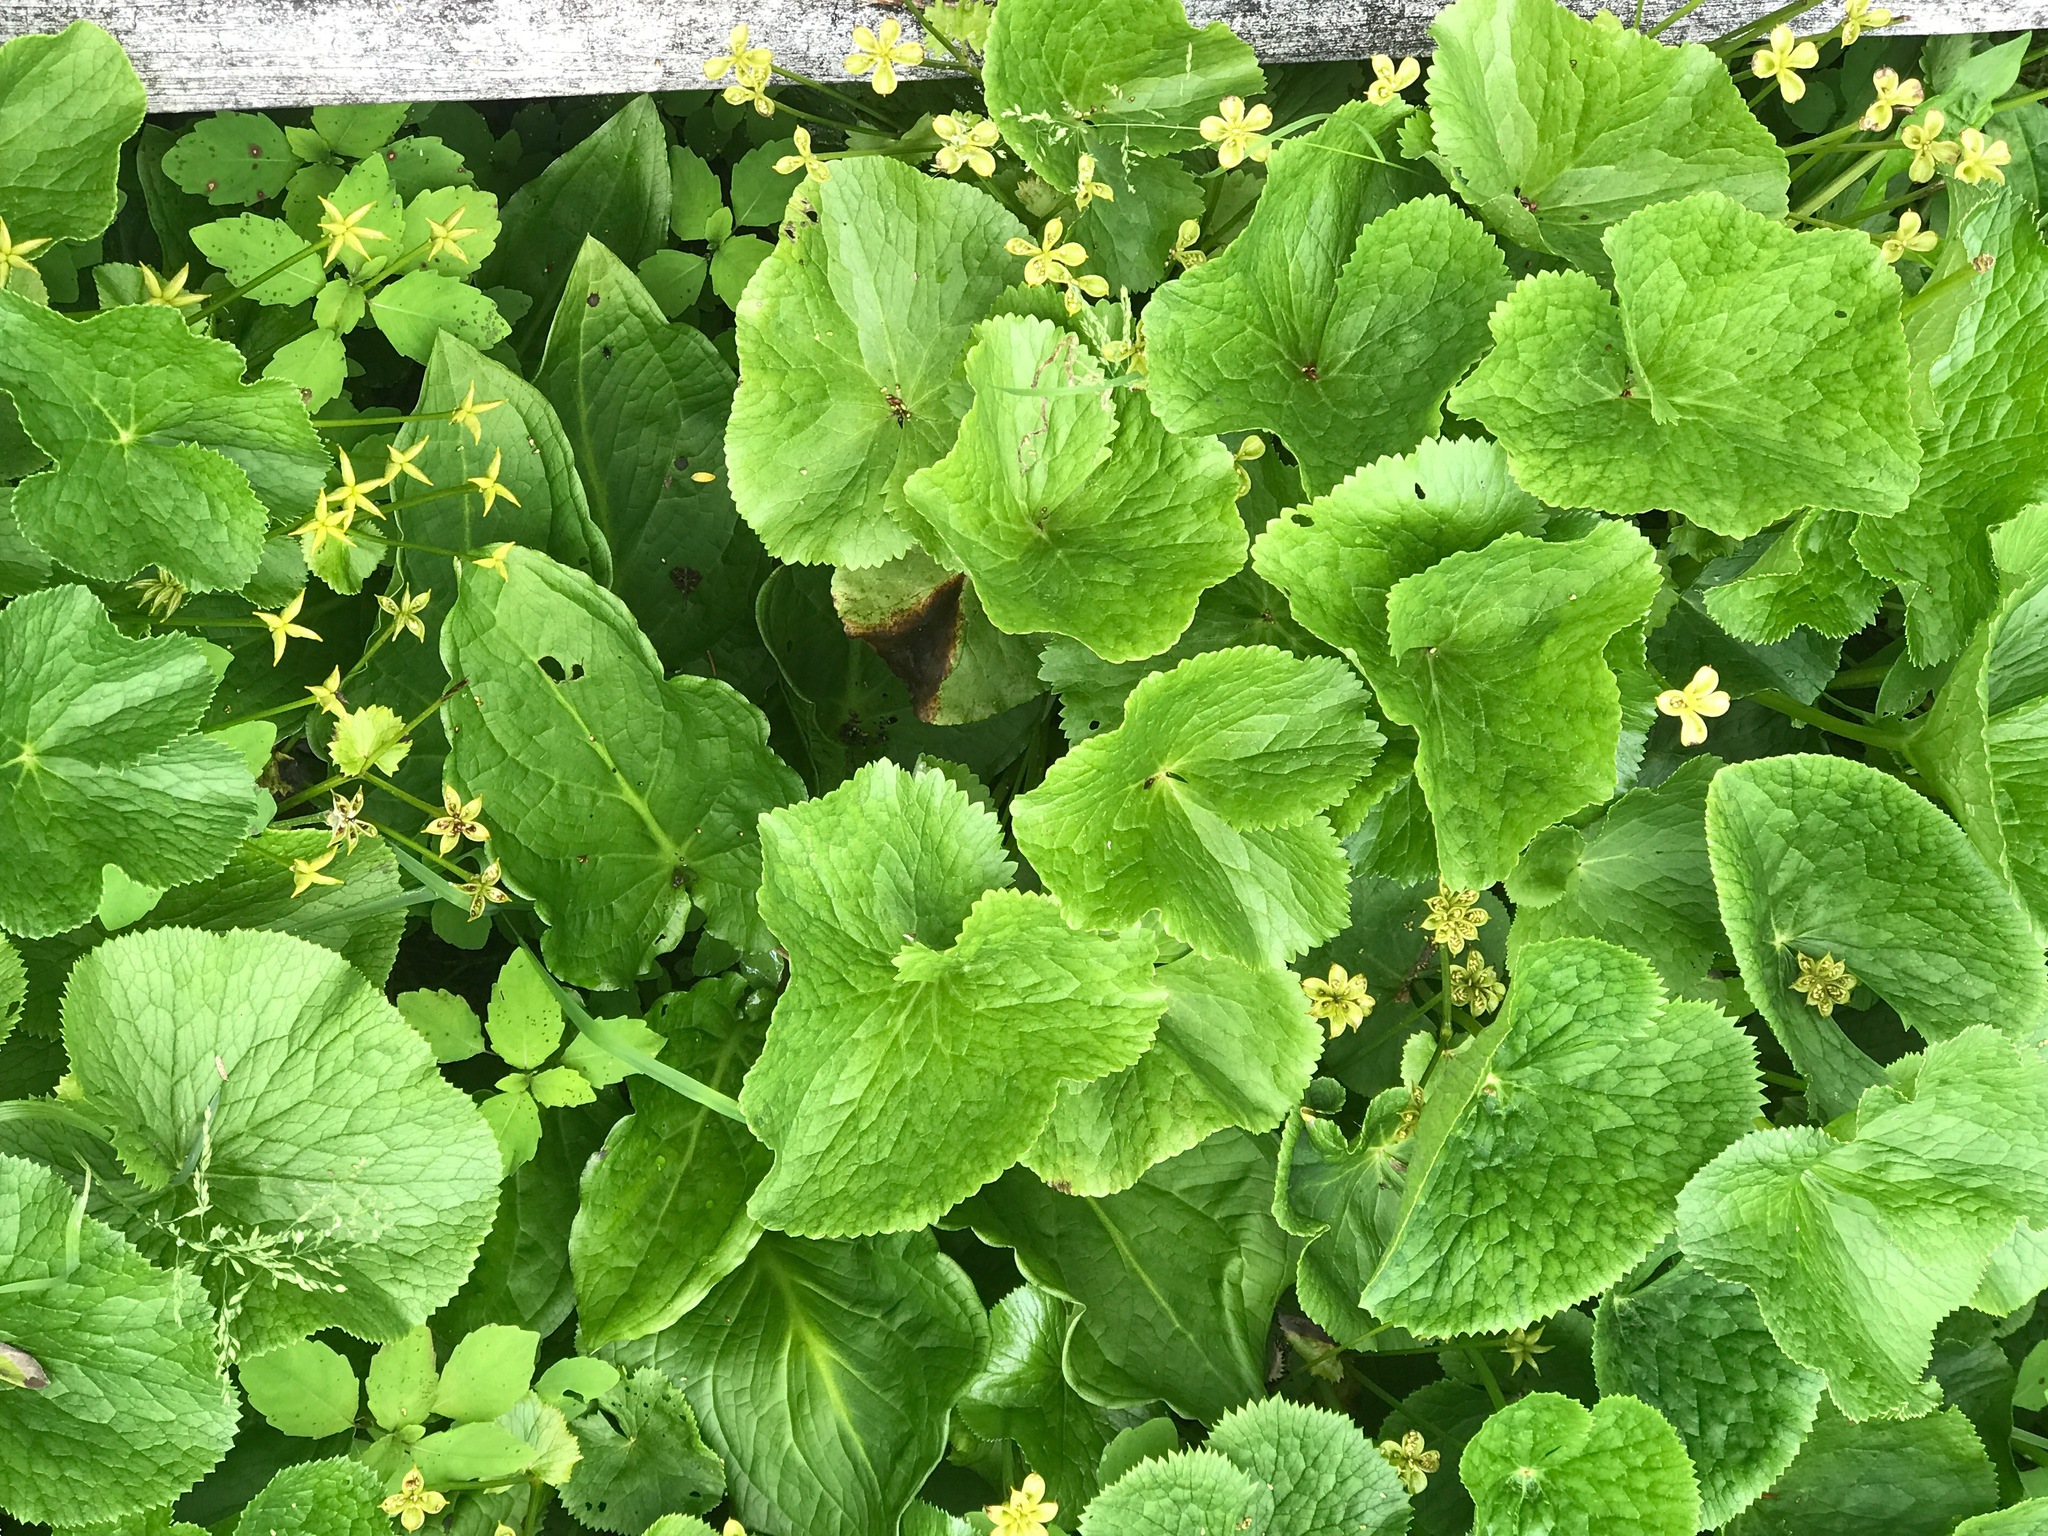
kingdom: Plantae
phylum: Tracheophyta
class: Magnoliopsida
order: Ranunculales
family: Ranunculaceae
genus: Caltha
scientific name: Caltha palustris
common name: Marsh marigold
